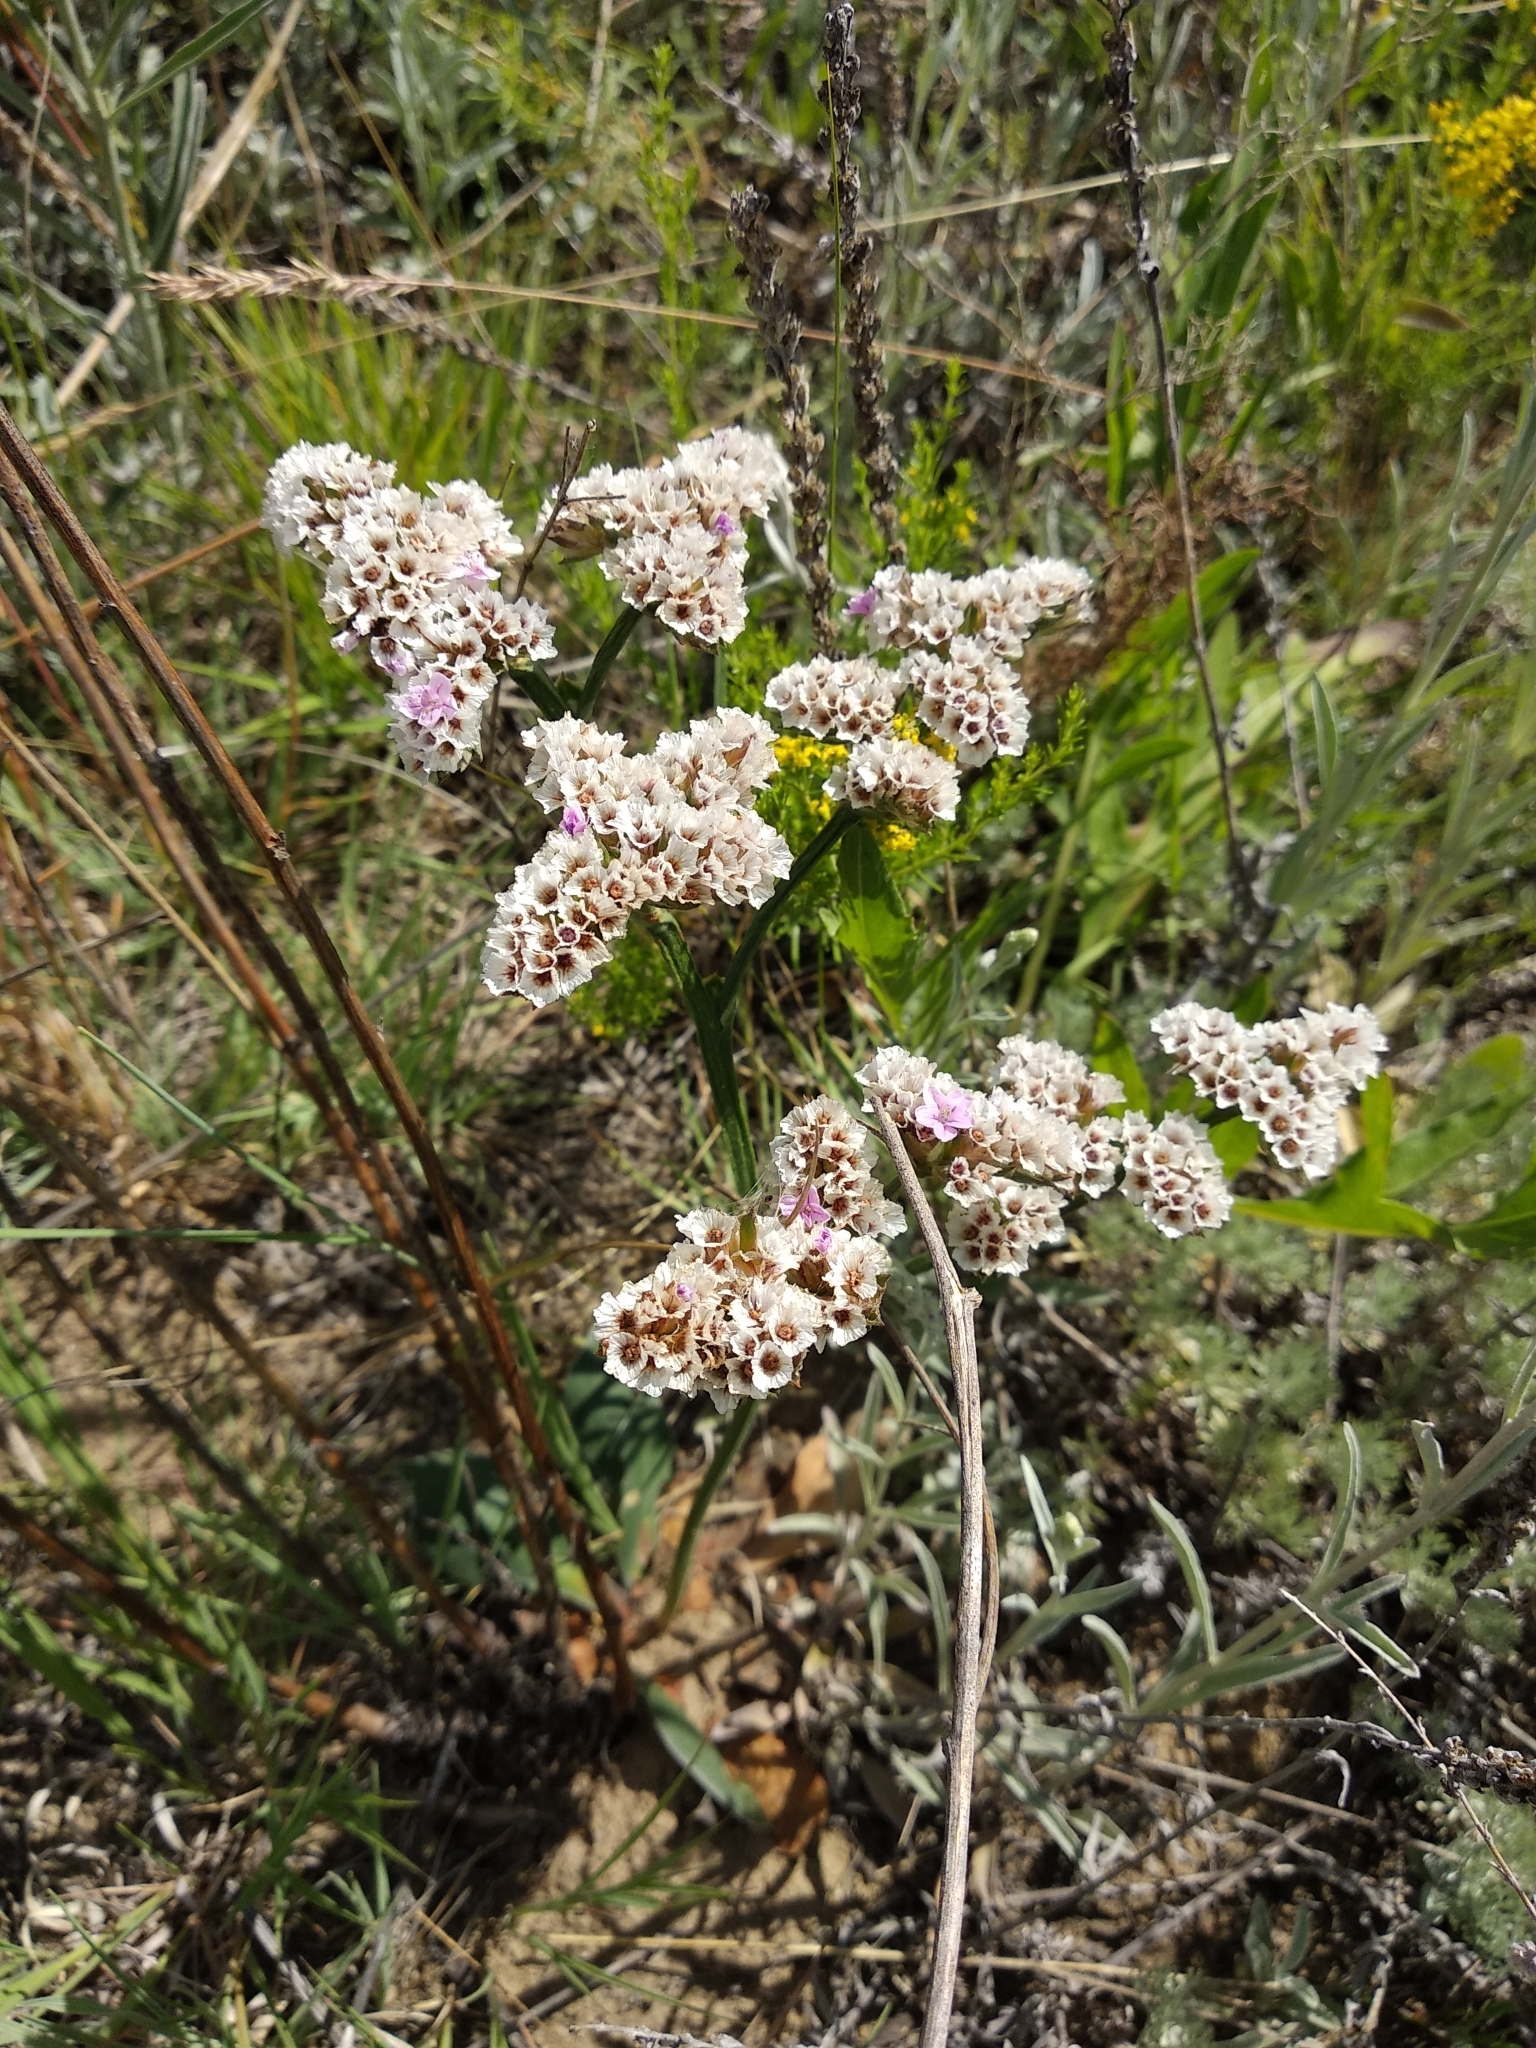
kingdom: Plantae
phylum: Tracheophyta
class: Magnoliopsida
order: Caryophyllales
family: Plumbaginaceae
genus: Goniolimon
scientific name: Goniolimon speciosum
